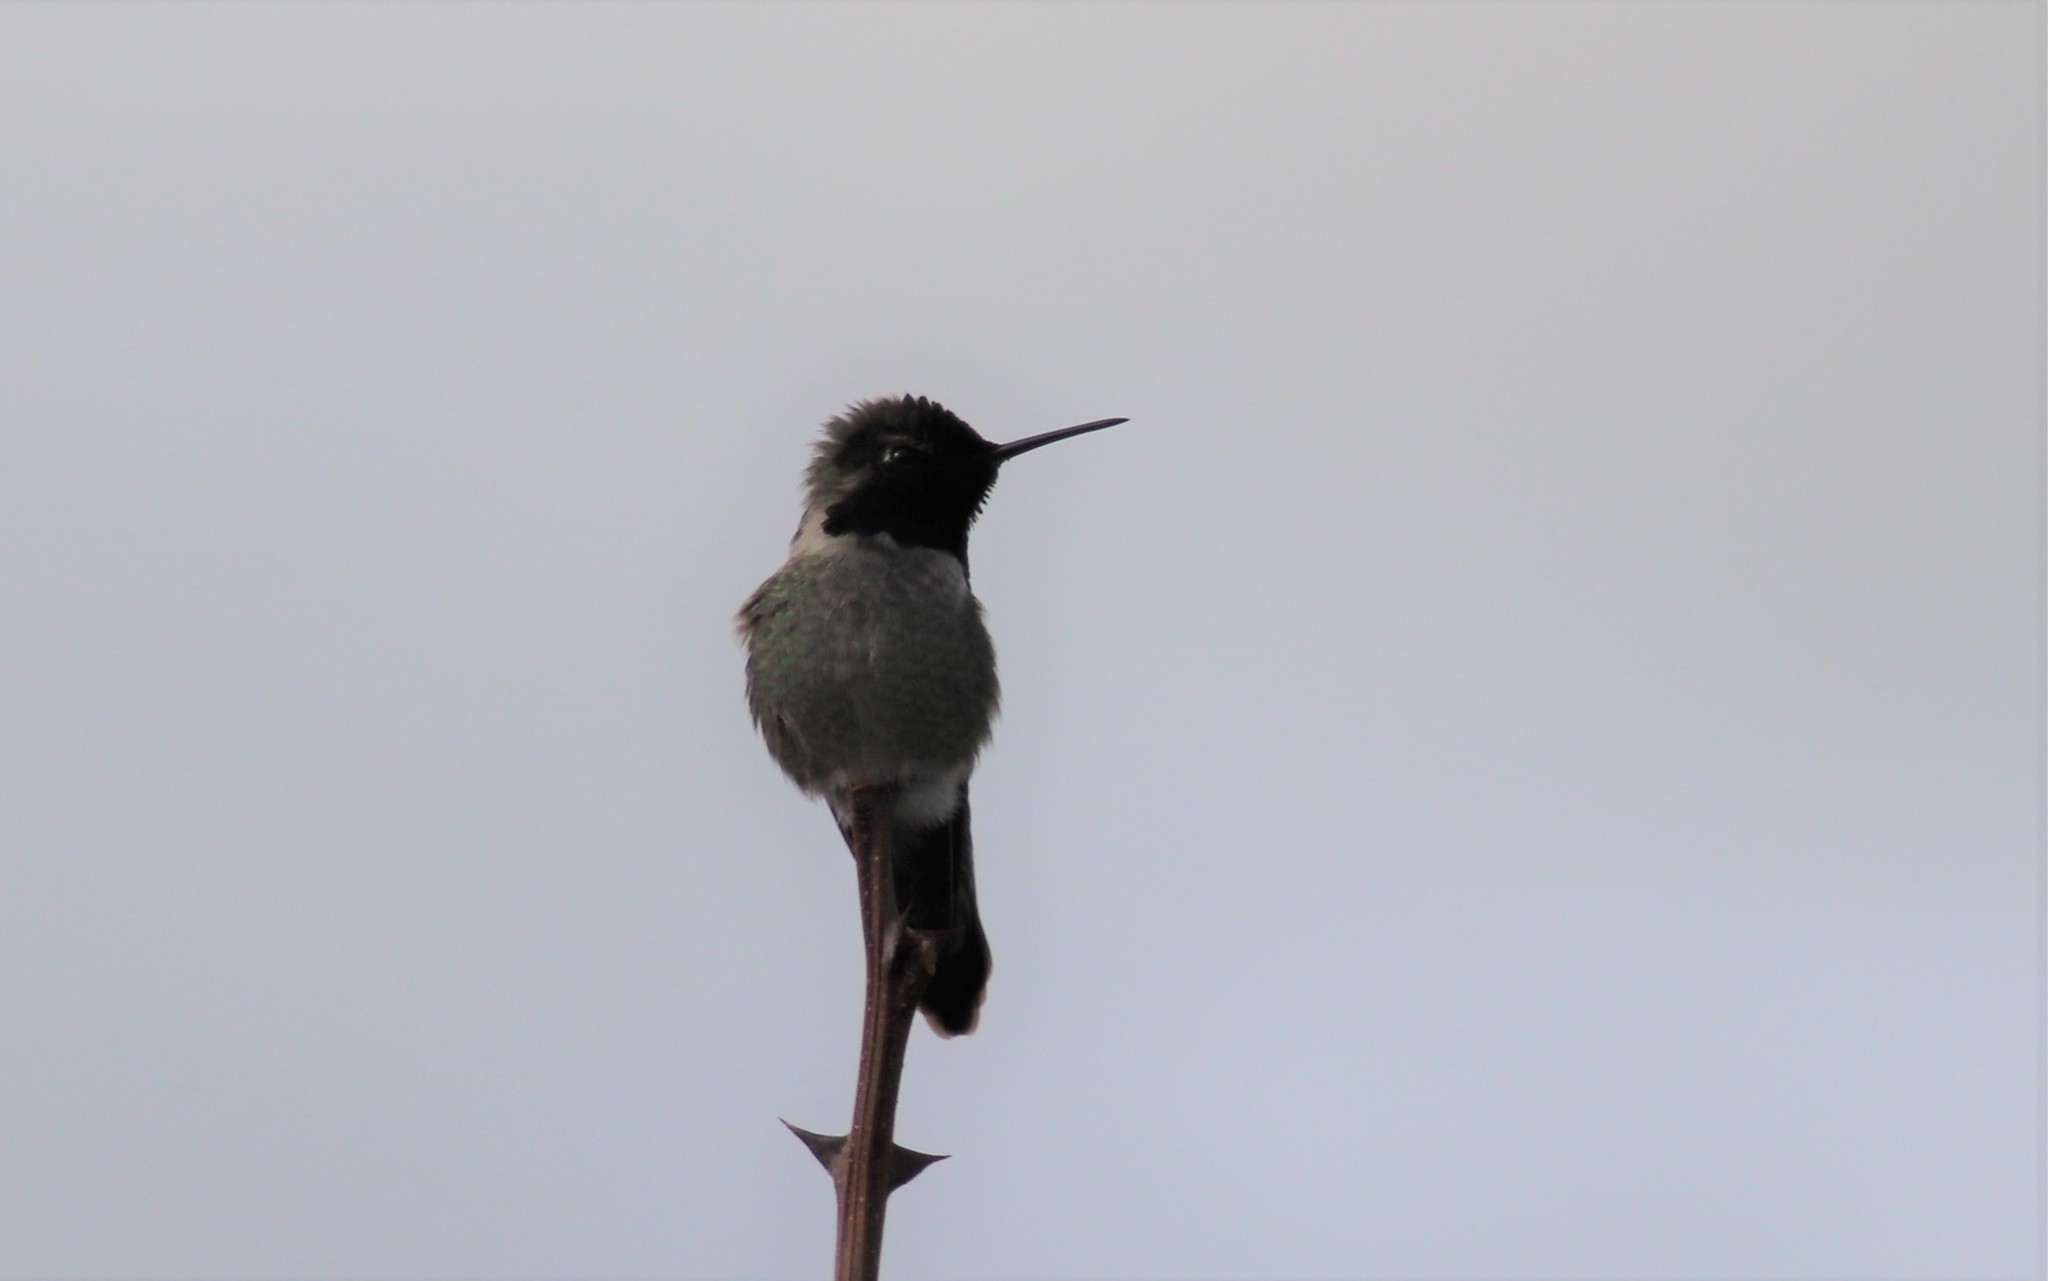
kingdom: Animalia
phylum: Chordata
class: Aves
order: Apodiformes
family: Trochilidae
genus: Calypte
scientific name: Calypte anna
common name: Anna's hummingbird
